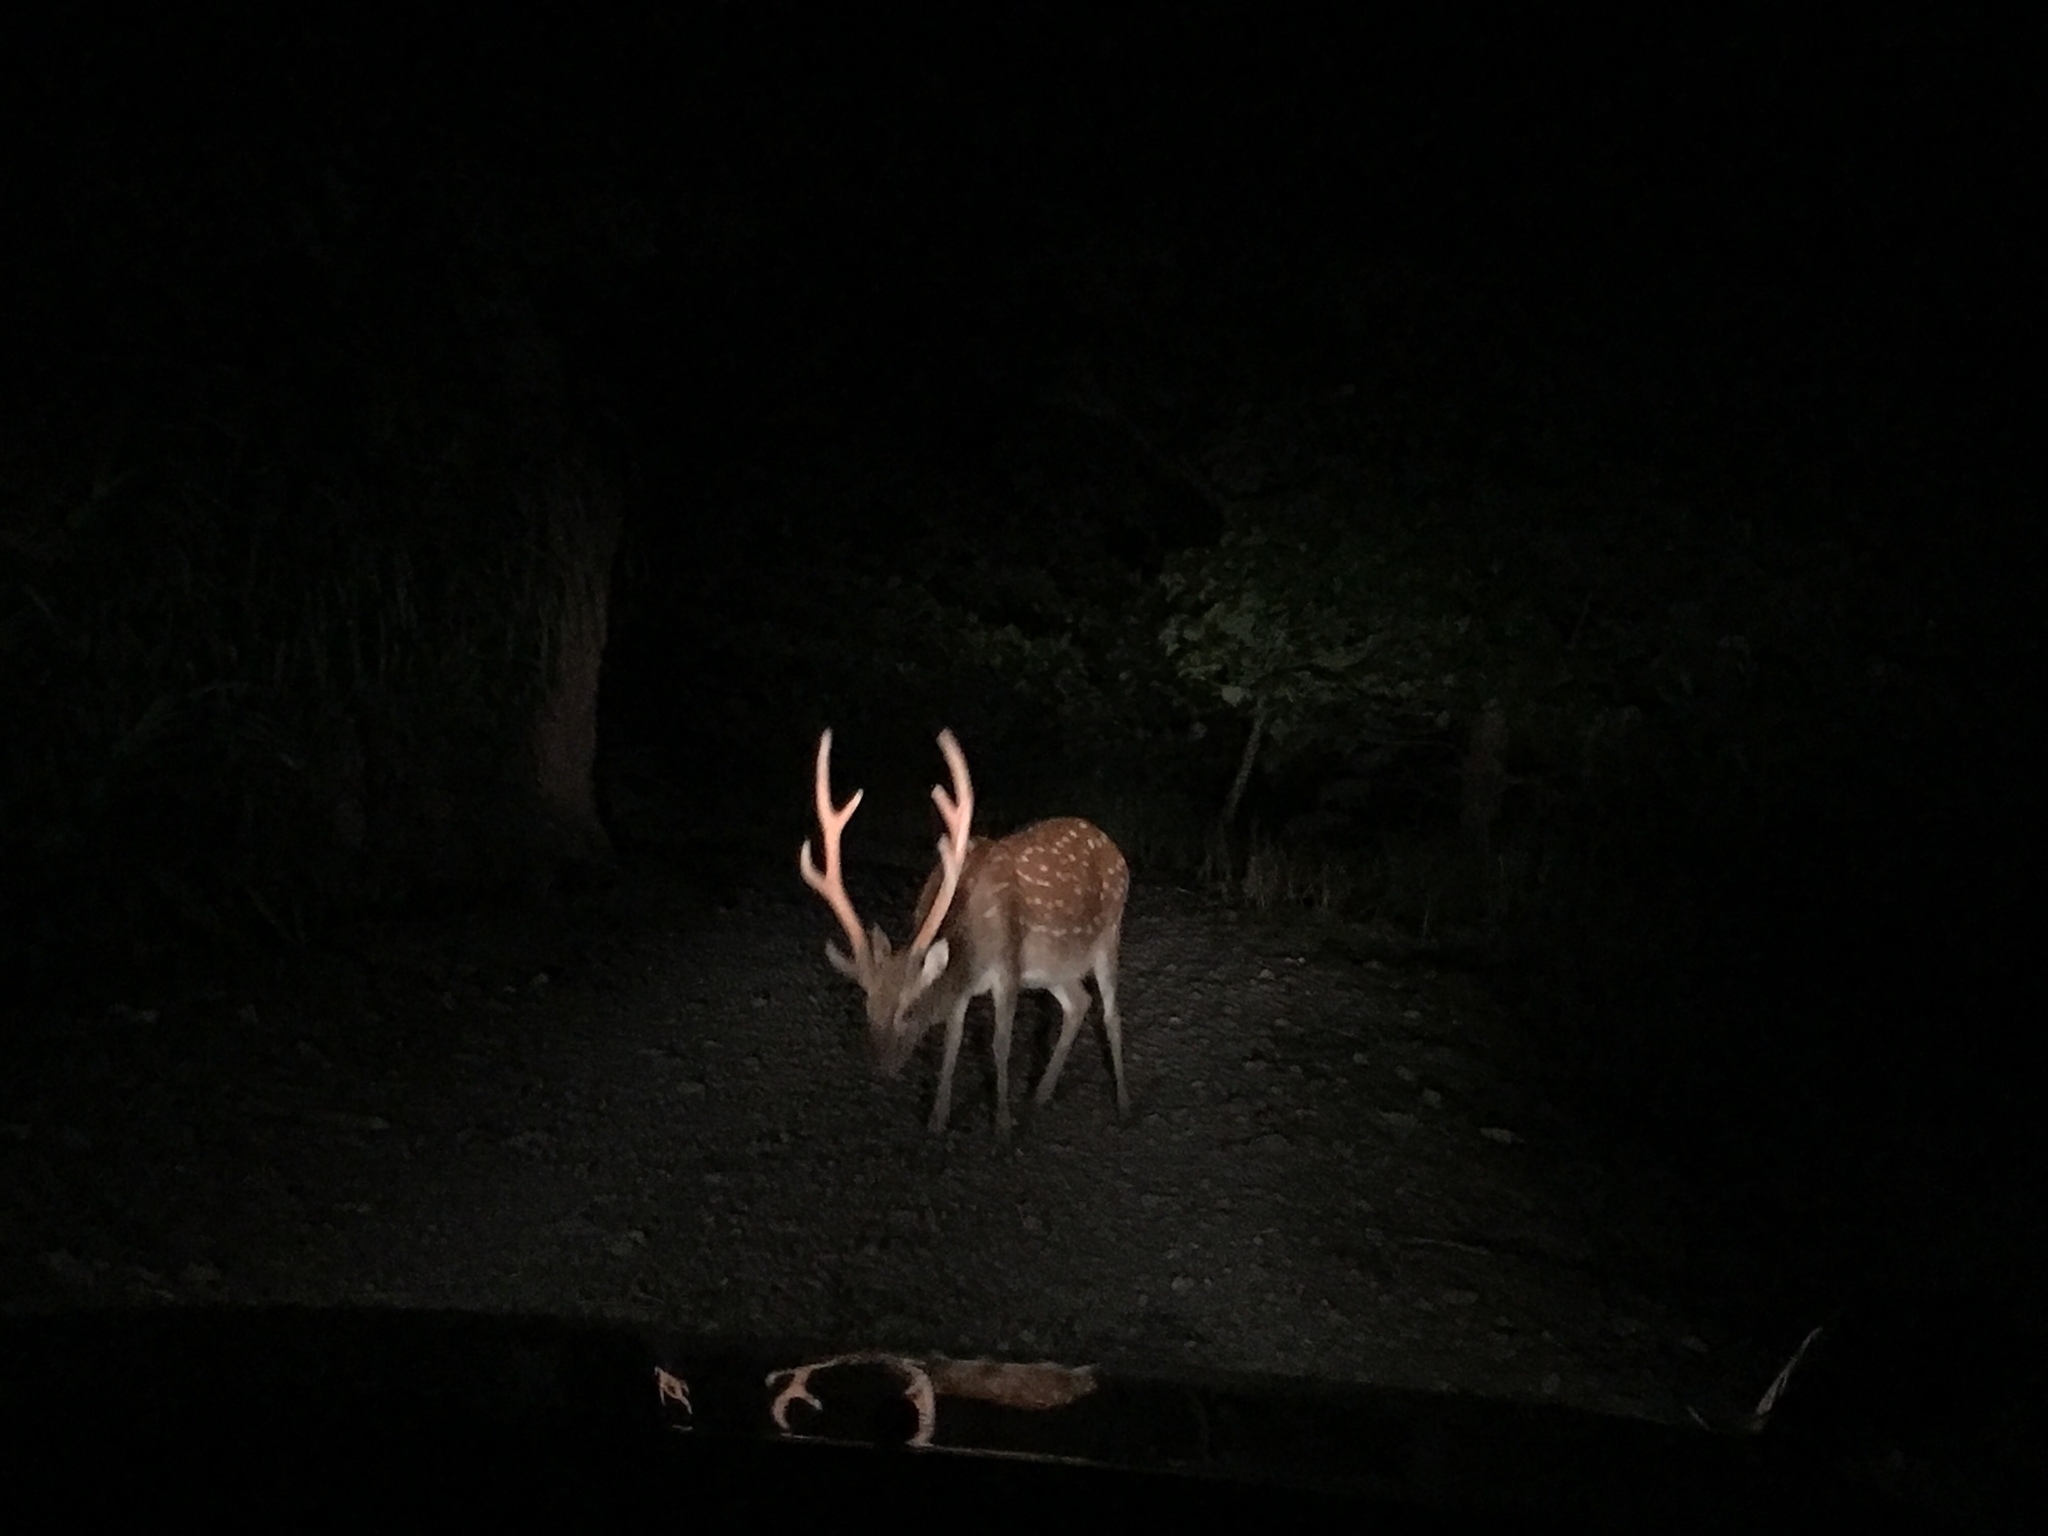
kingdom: Animalia
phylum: Chordata
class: Mammalia
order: Artiodactyla
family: Cervidae
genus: Cervus
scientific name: Cervus nippon
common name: Sika deer
